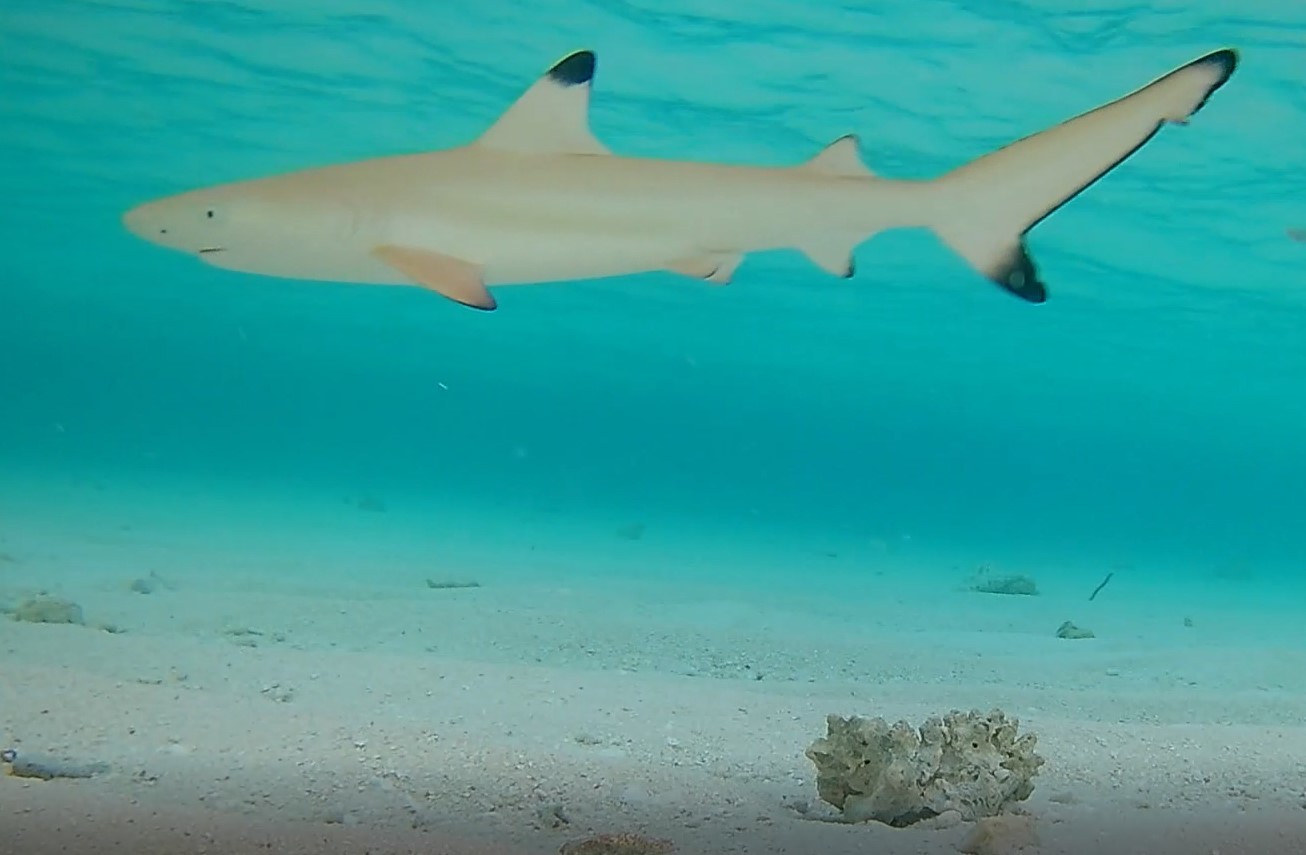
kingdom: Animalia
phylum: Chordata
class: Elasmobranchii
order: Carcharhiniformes
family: Carcharhinidae
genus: Carcharhinus
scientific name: Carcharhinus melanopterus
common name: Blacktip reef shark
